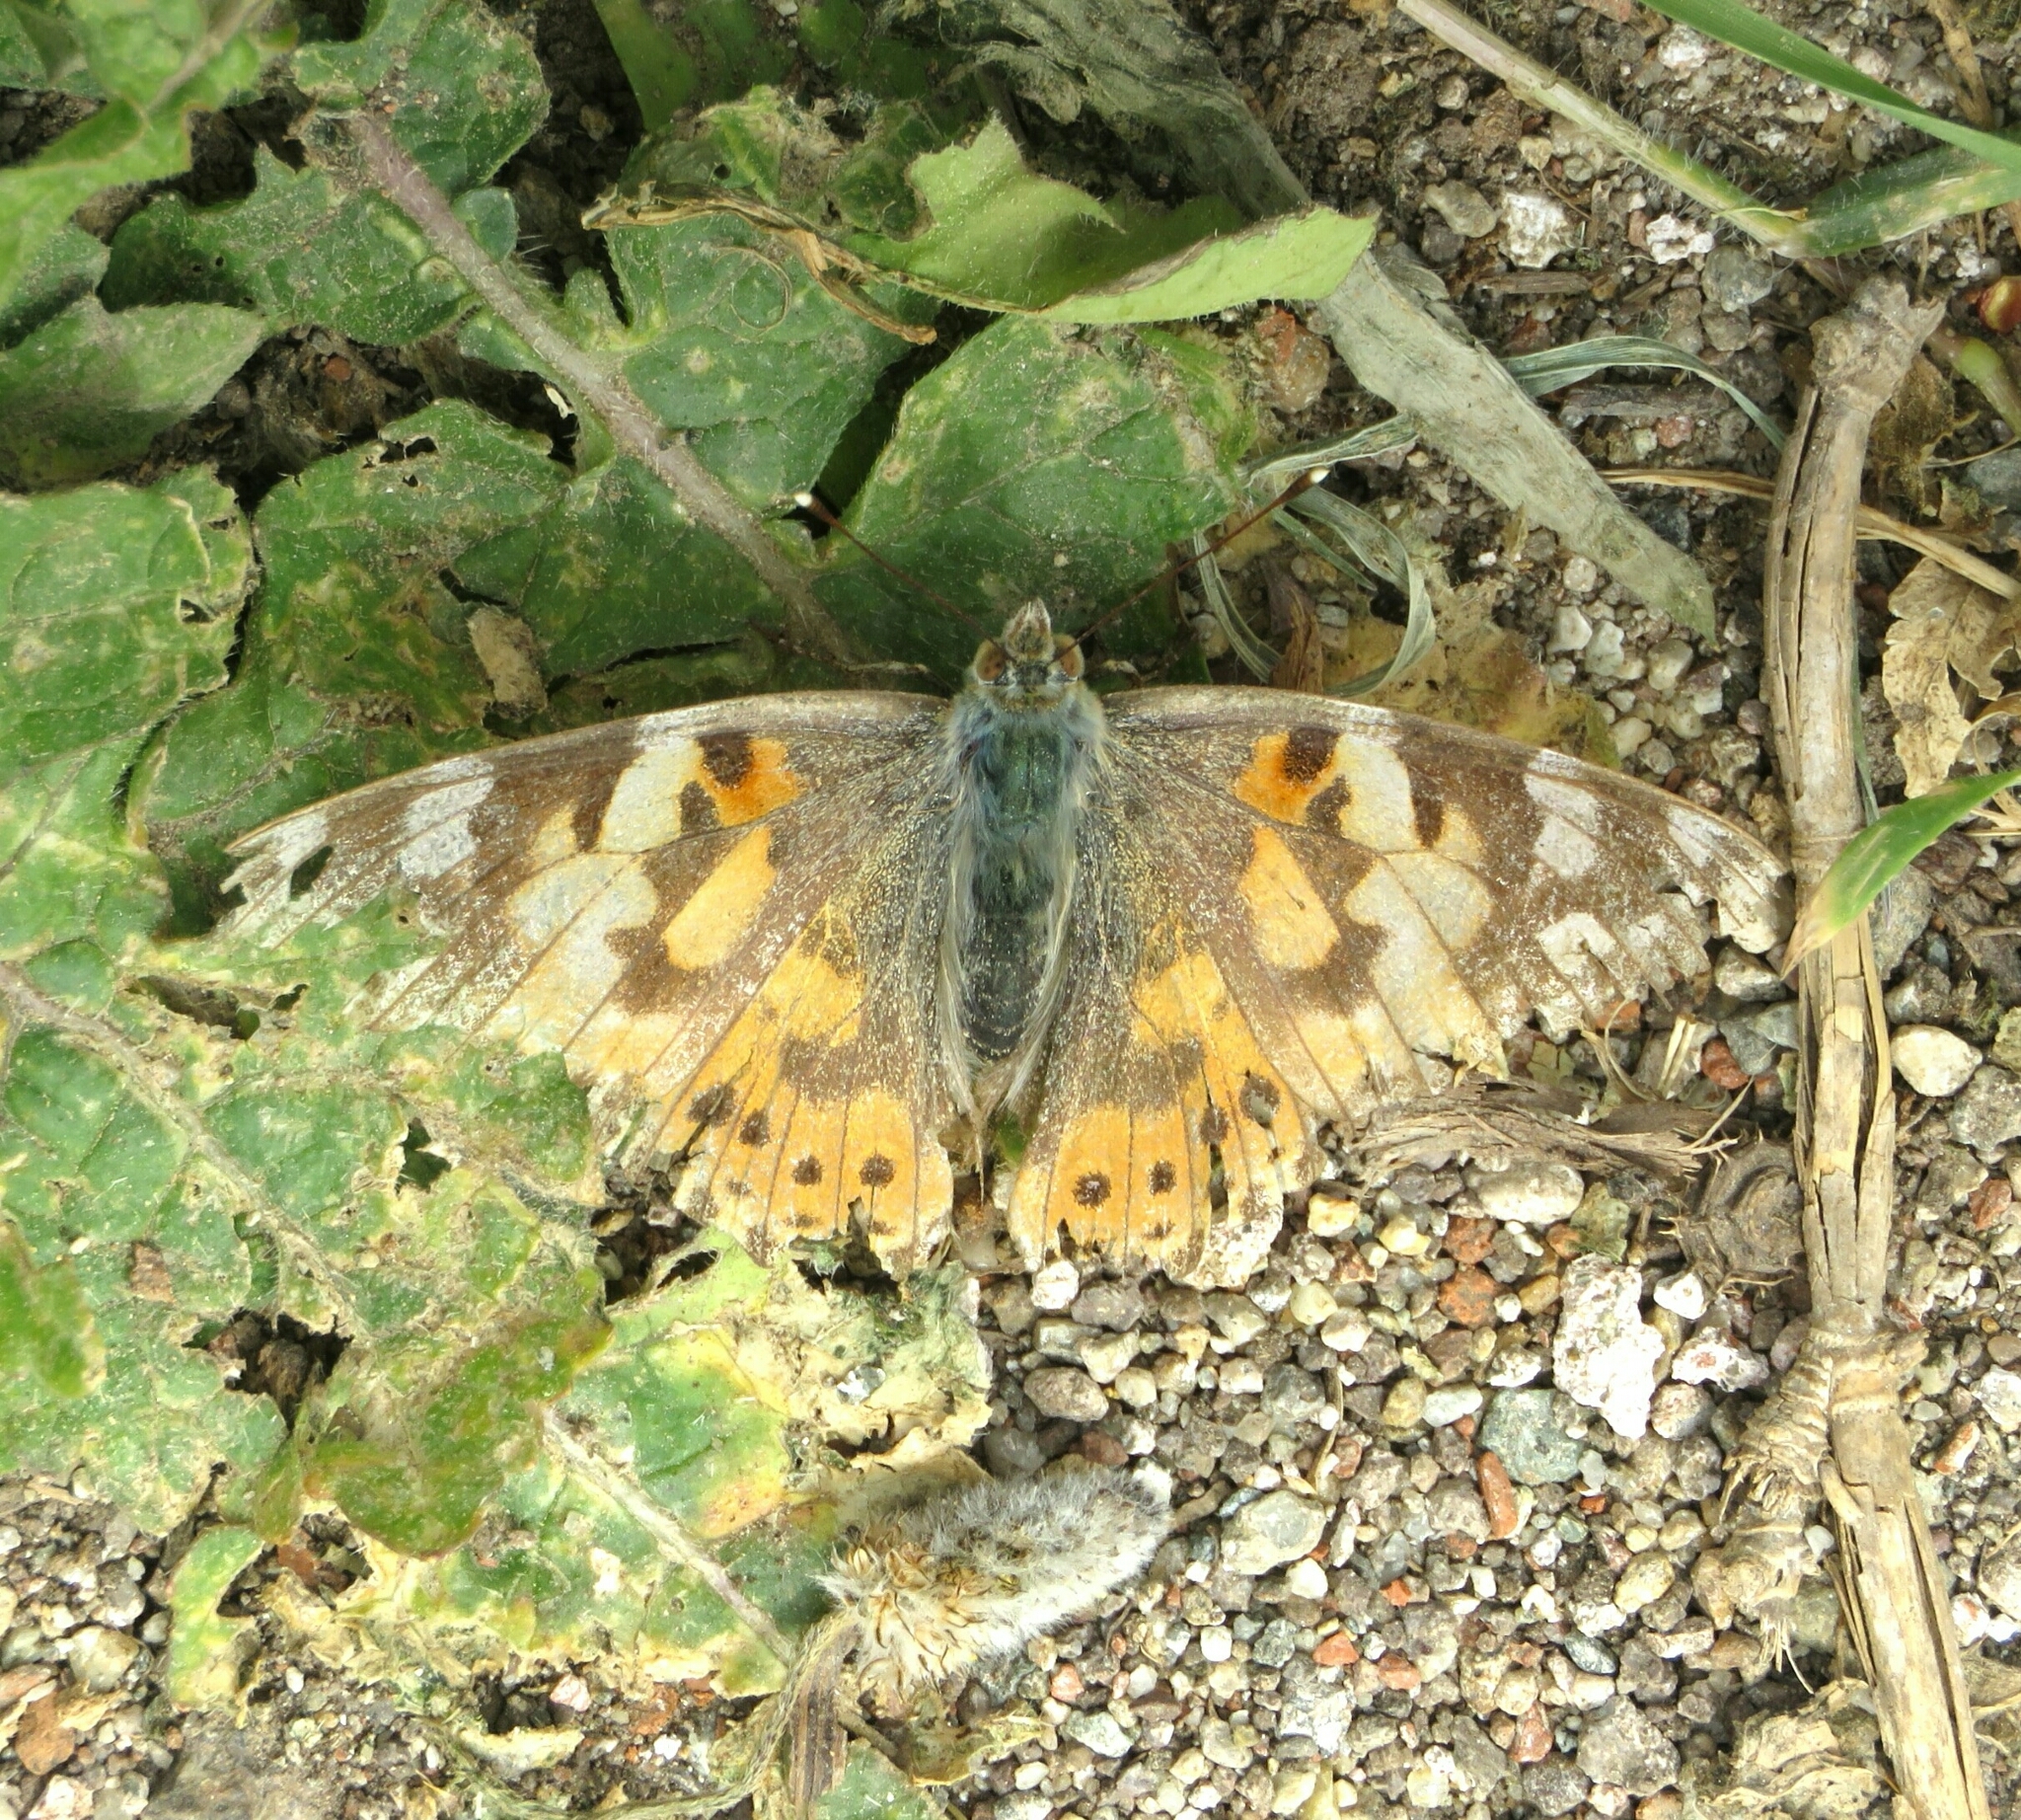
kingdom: Animalia
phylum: Arthropoda
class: Insecta
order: Lepidoptera
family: Nymphalidae
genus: Vanessa
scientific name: Vanessa cardui
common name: Painted lady
